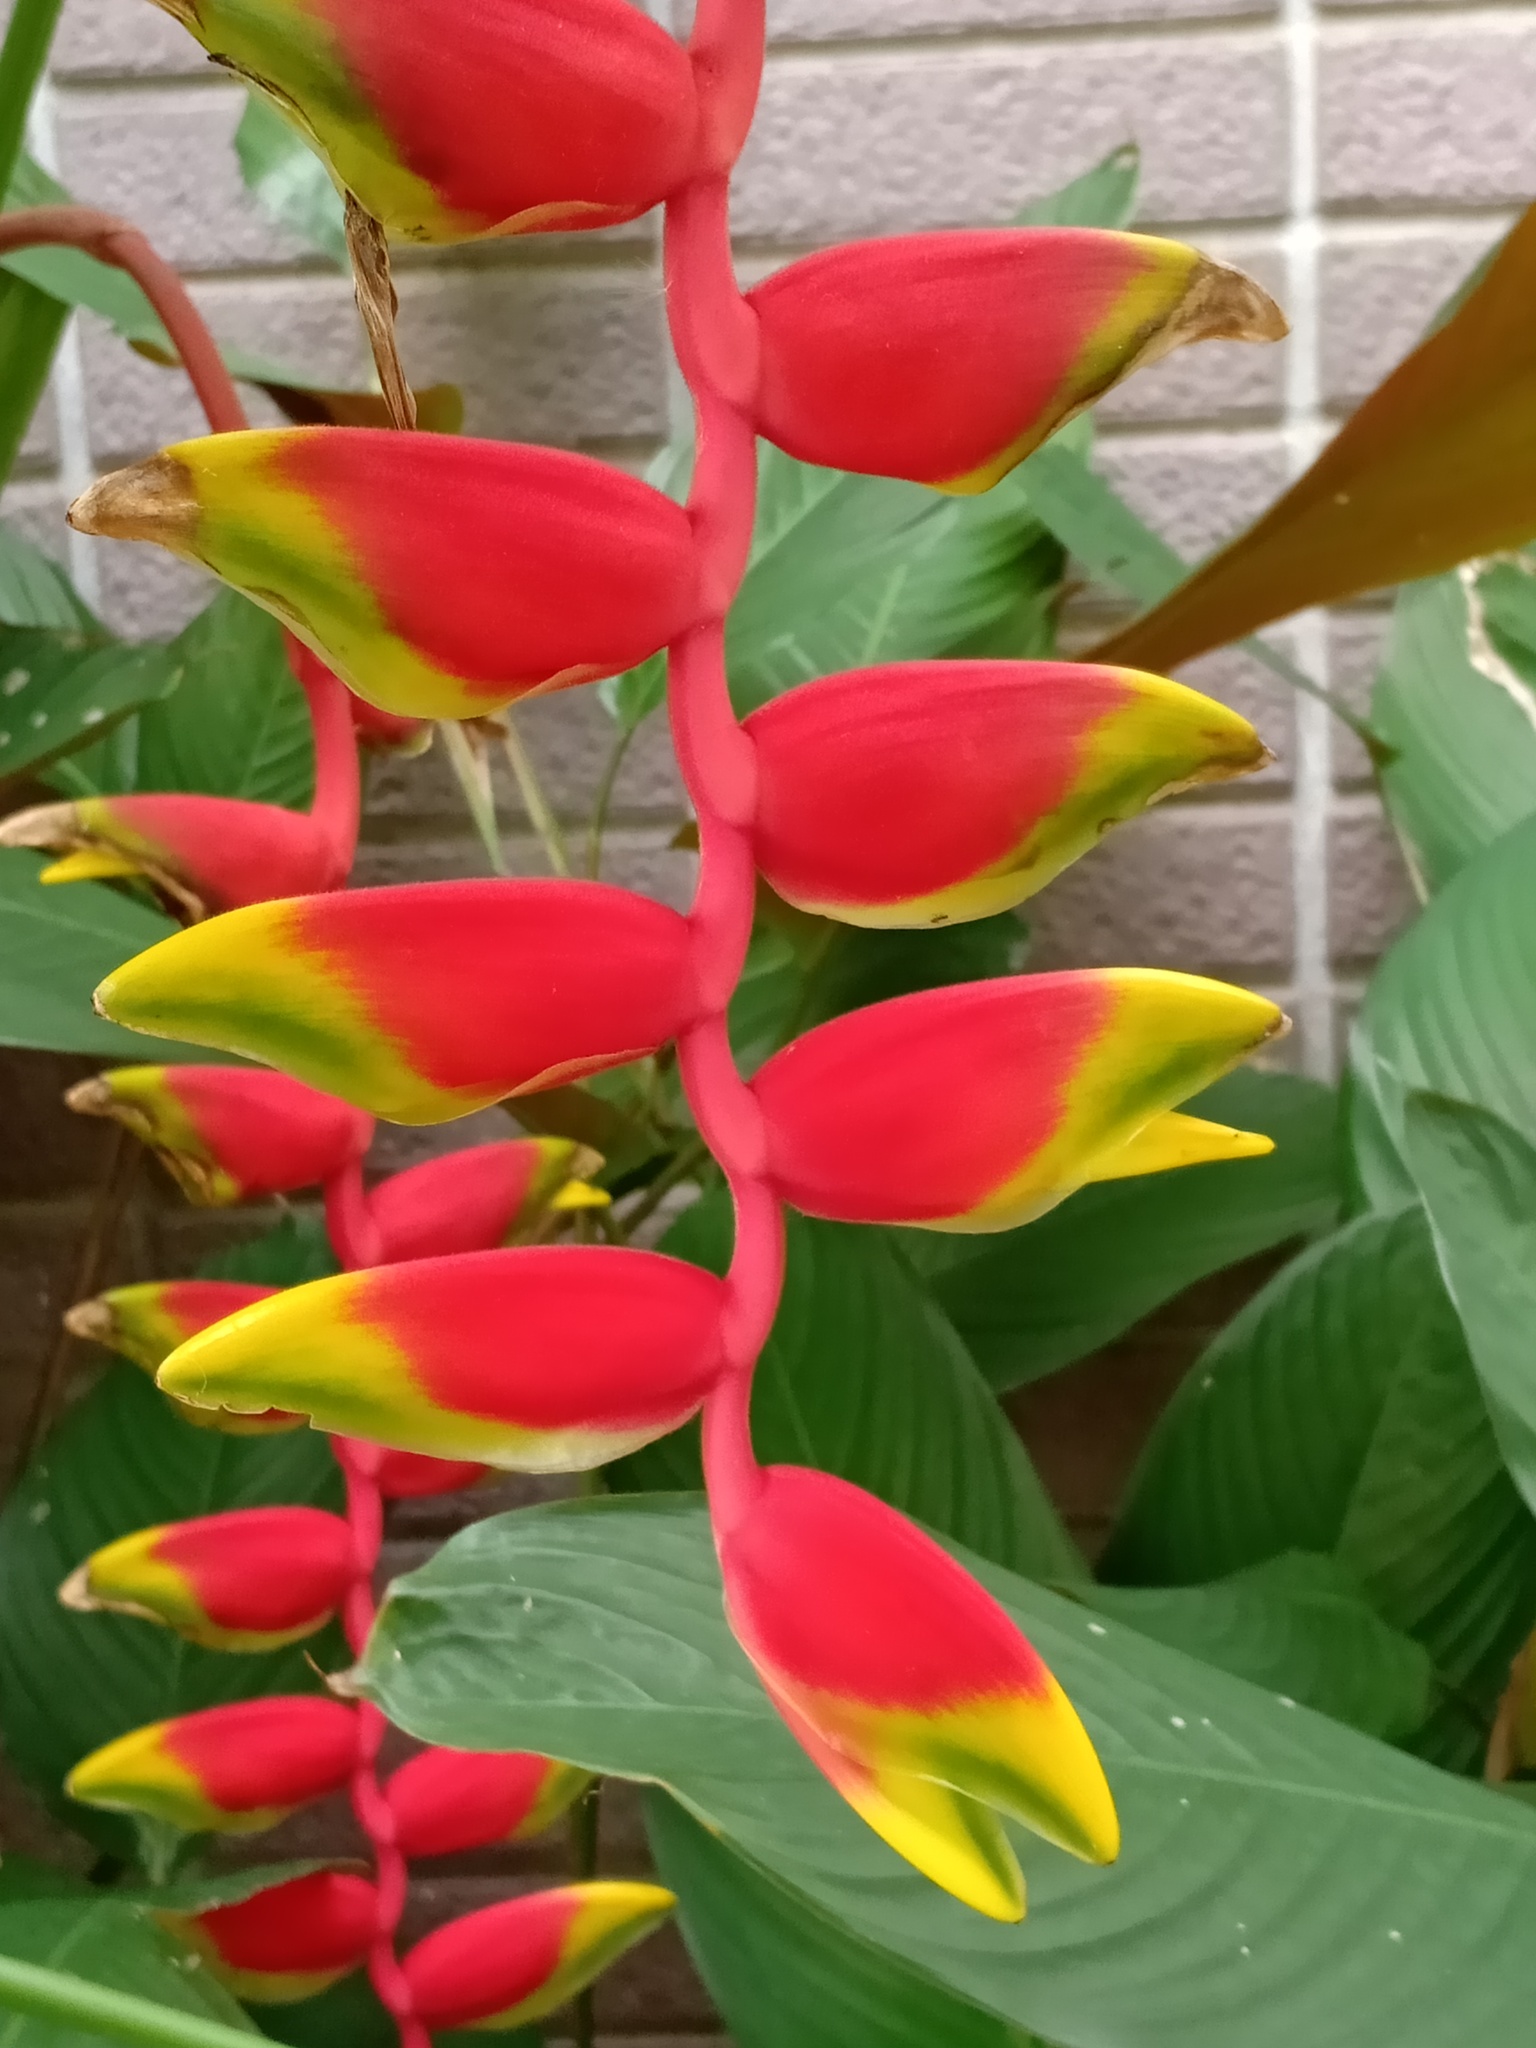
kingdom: Plantae
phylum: Tracheophyta
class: Liliopsida
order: Zingiberales
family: Heliconiaceae
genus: Heliconia
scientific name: Heliconia rostrata
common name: False bird of paradise
